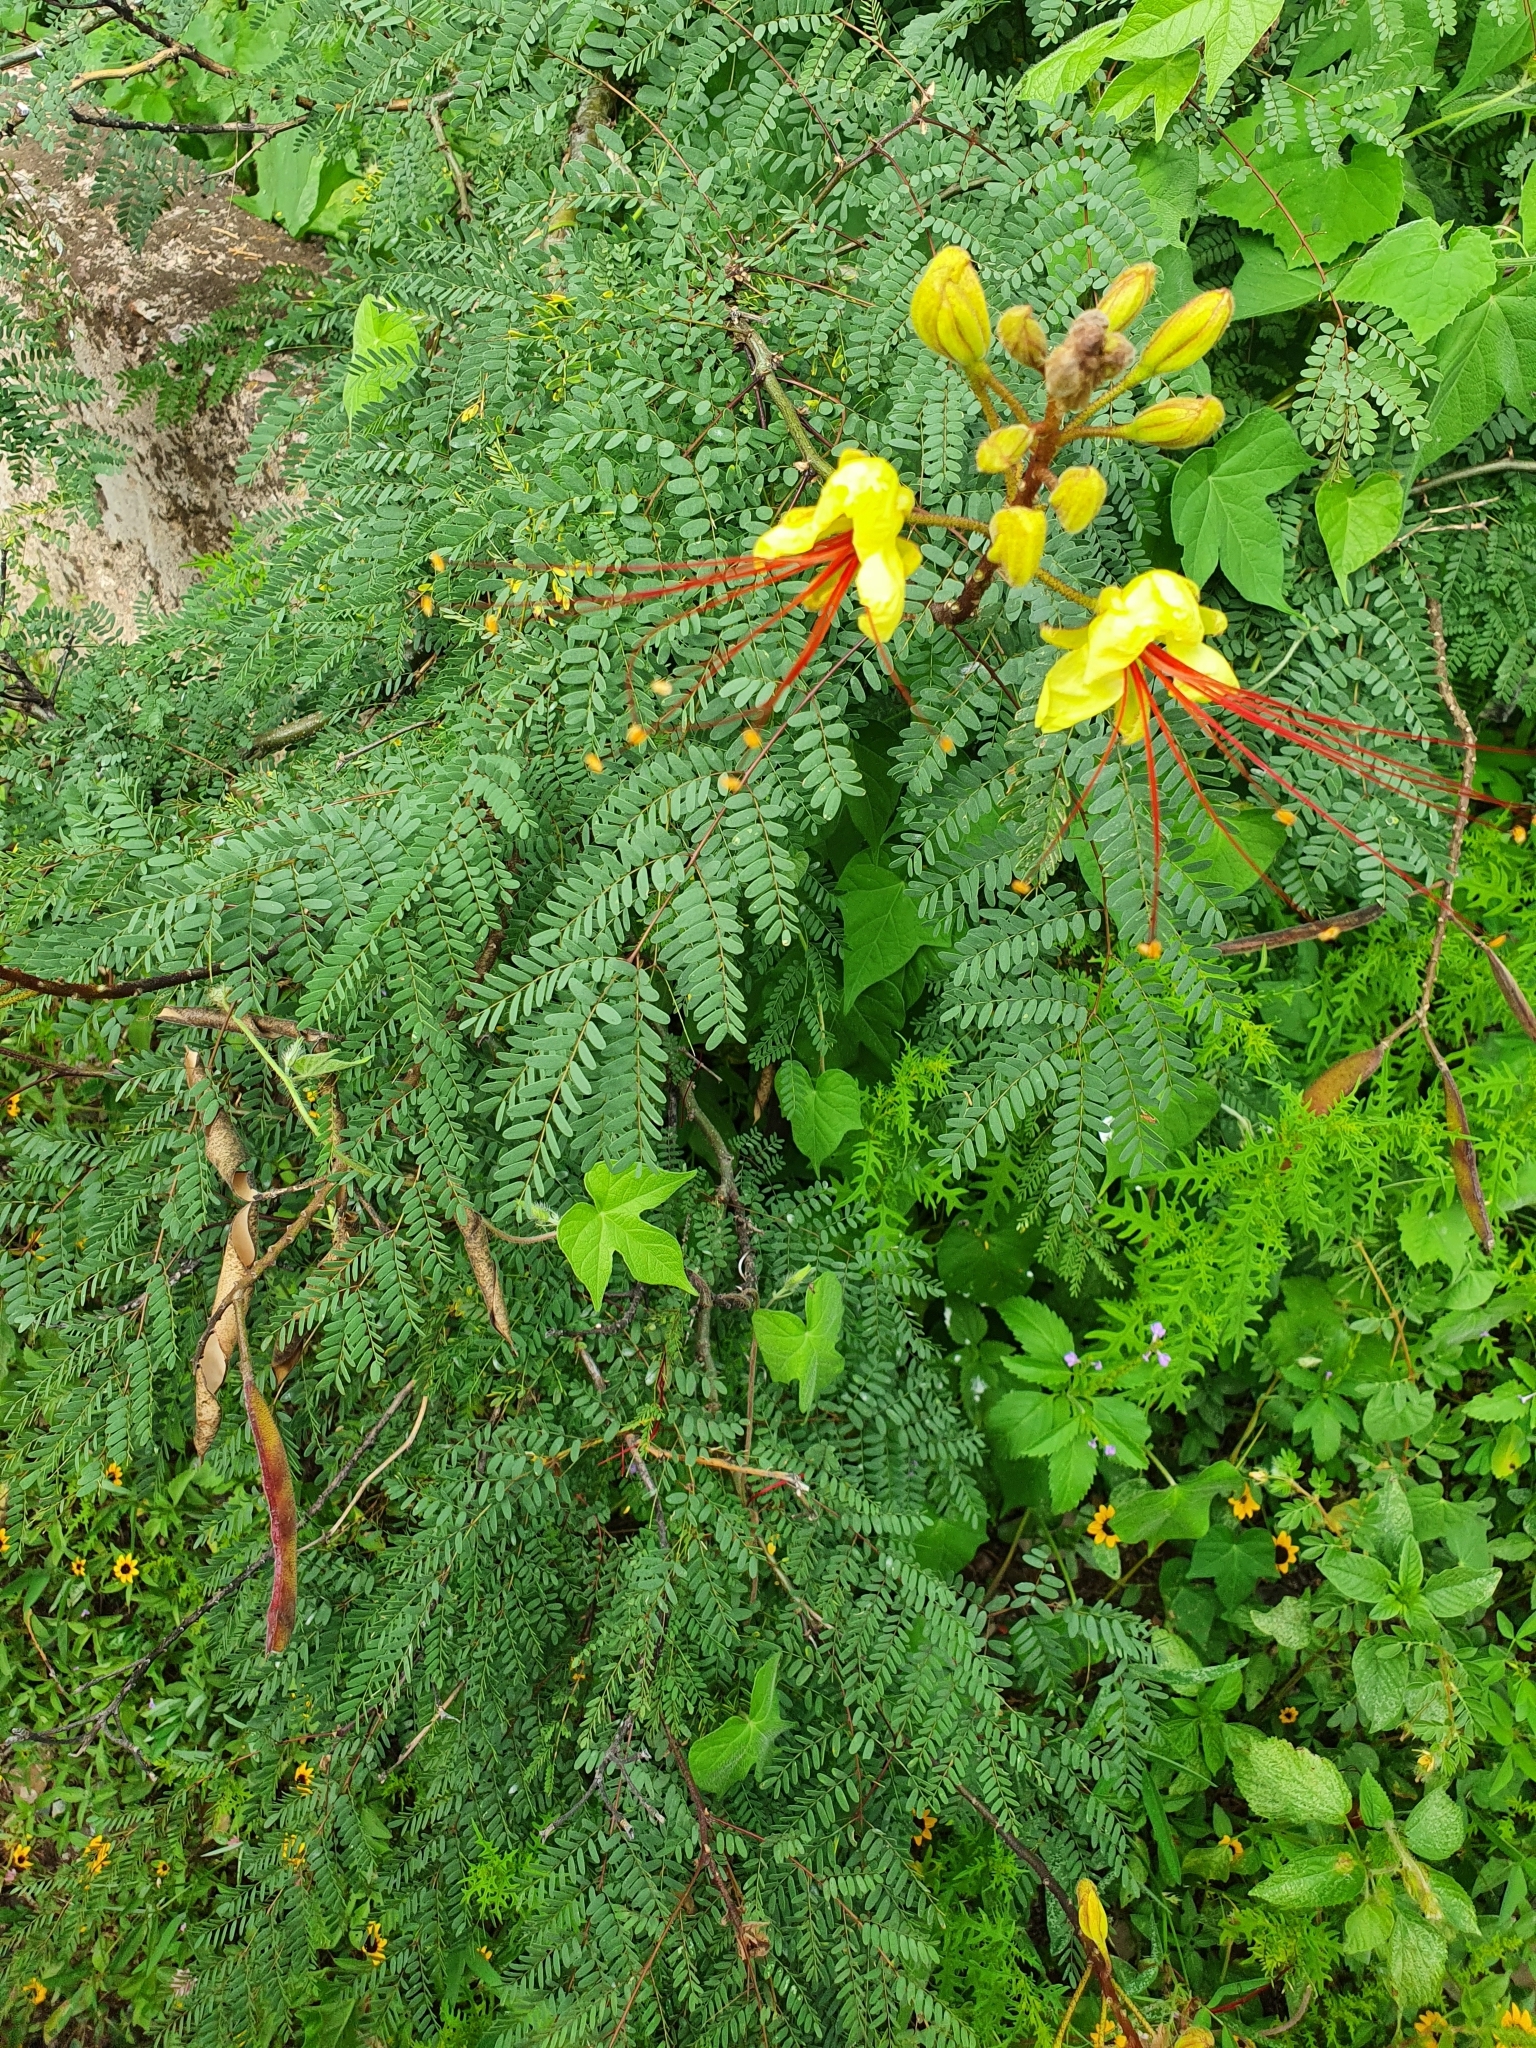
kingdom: Plantae
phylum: Tracheophyta
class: Magnoliopsida
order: Fabales
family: Fabaceae
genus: Erythrostemon
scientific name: Erythrostemon gilliesii
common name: Bird-of-paradise shrub
